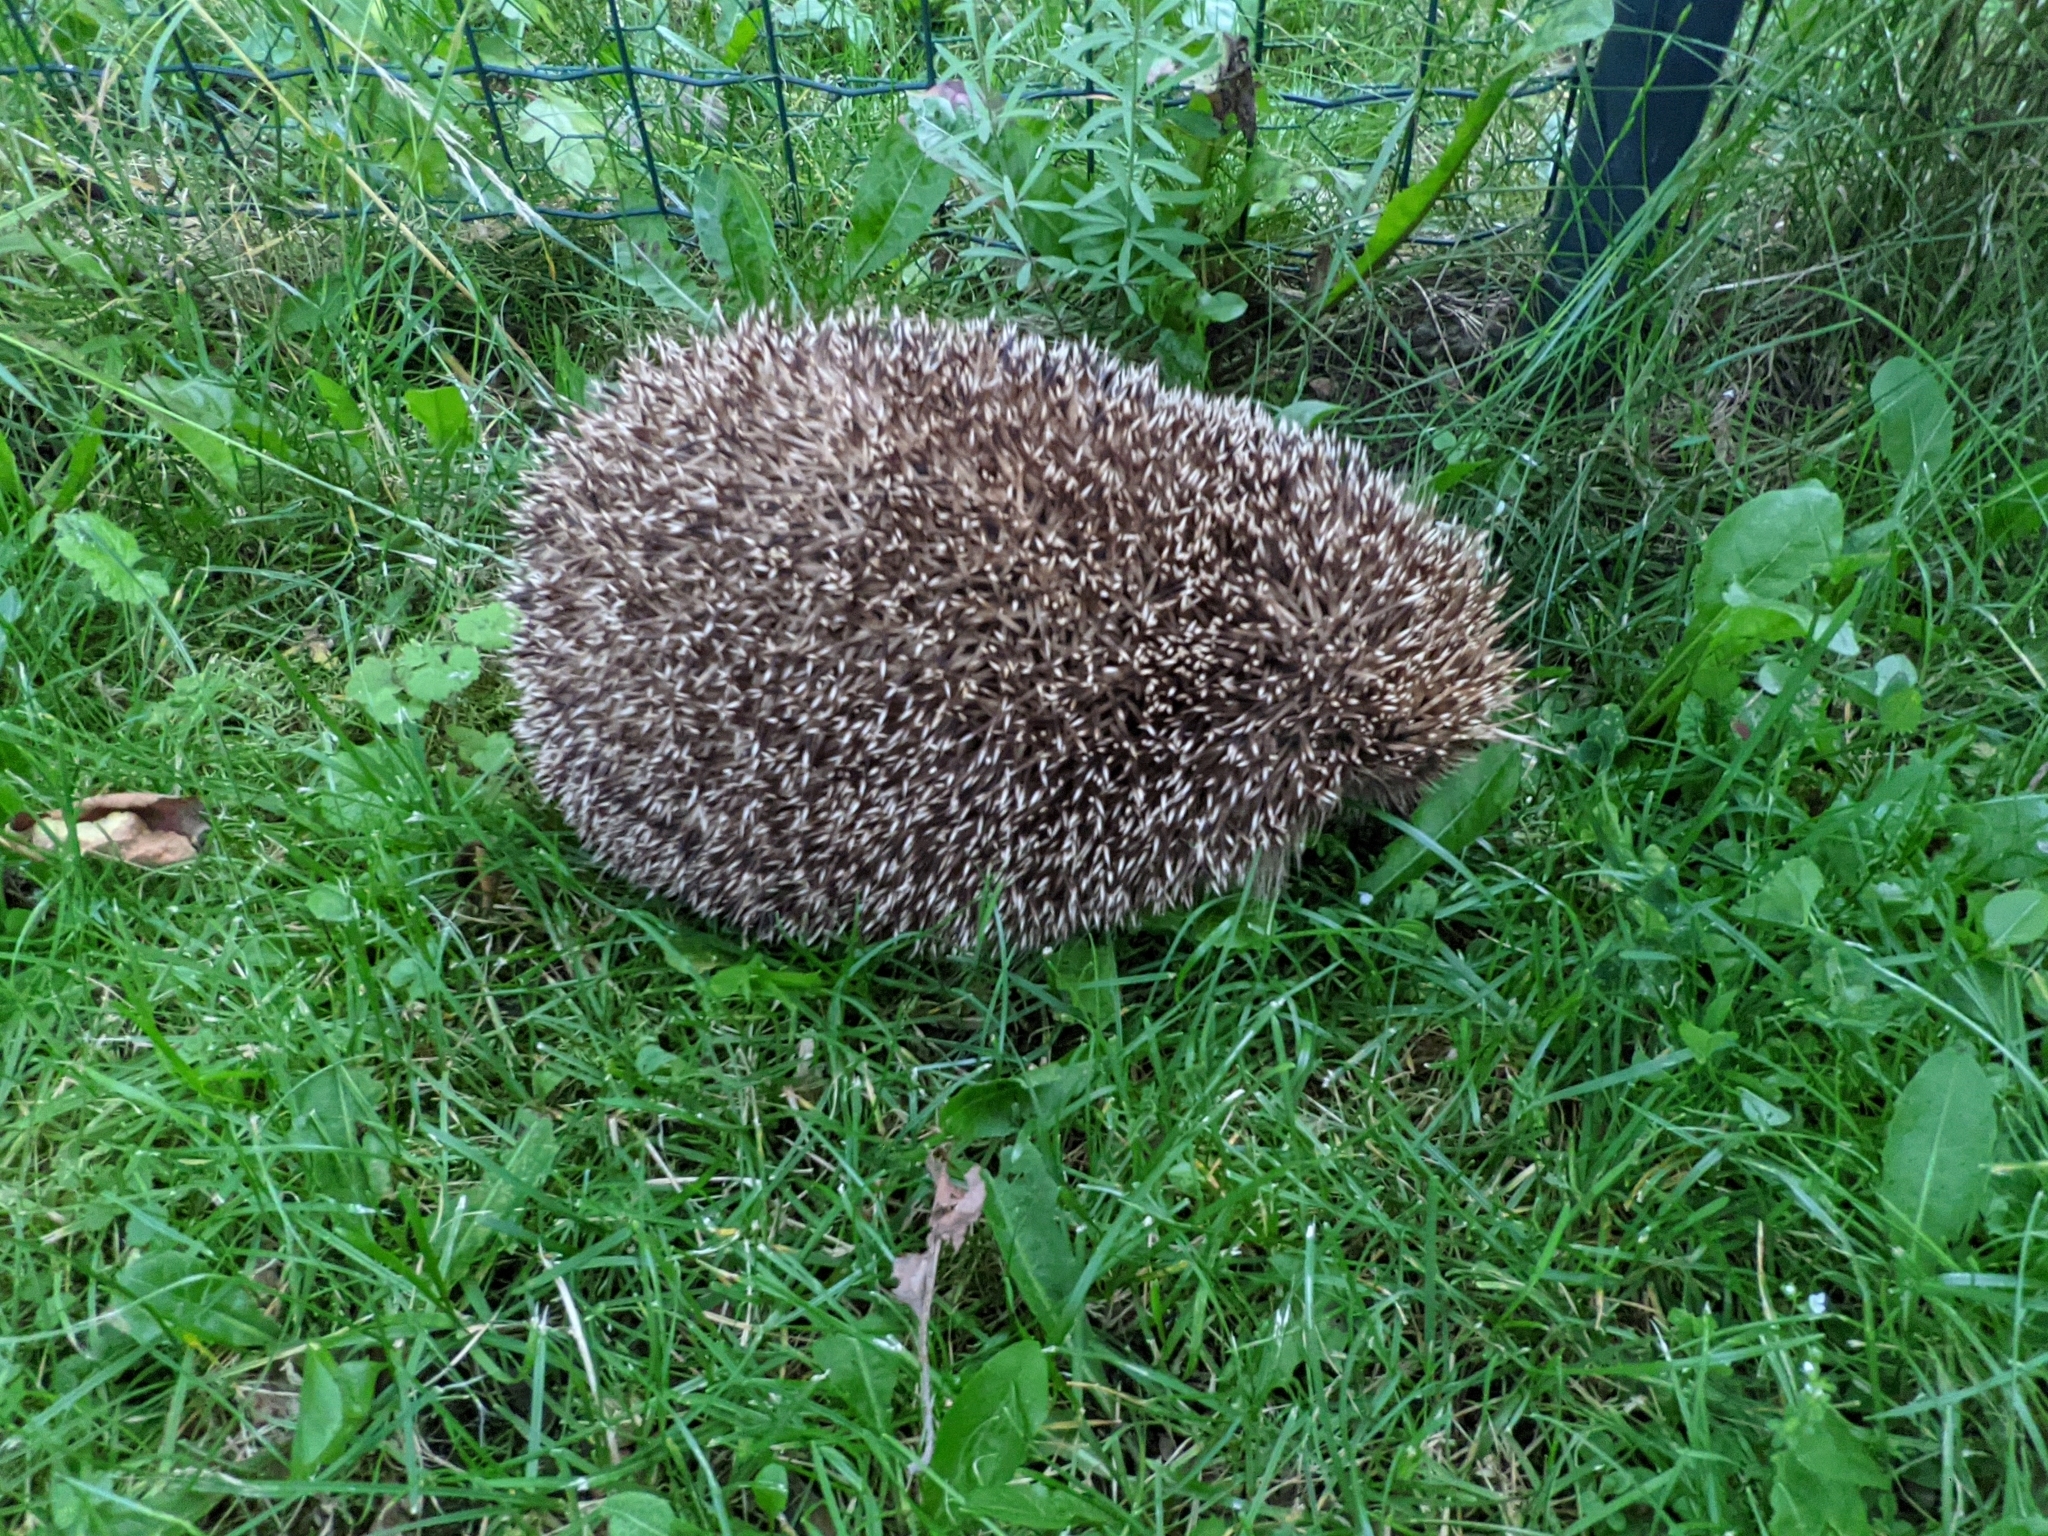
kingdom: Animalia
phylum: Chordata
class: Mammalia
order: Erinaceomorpha
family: Erinaceidae
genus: Erinaceus
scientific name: Erinaceus europaeus
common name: West european hedgehog
